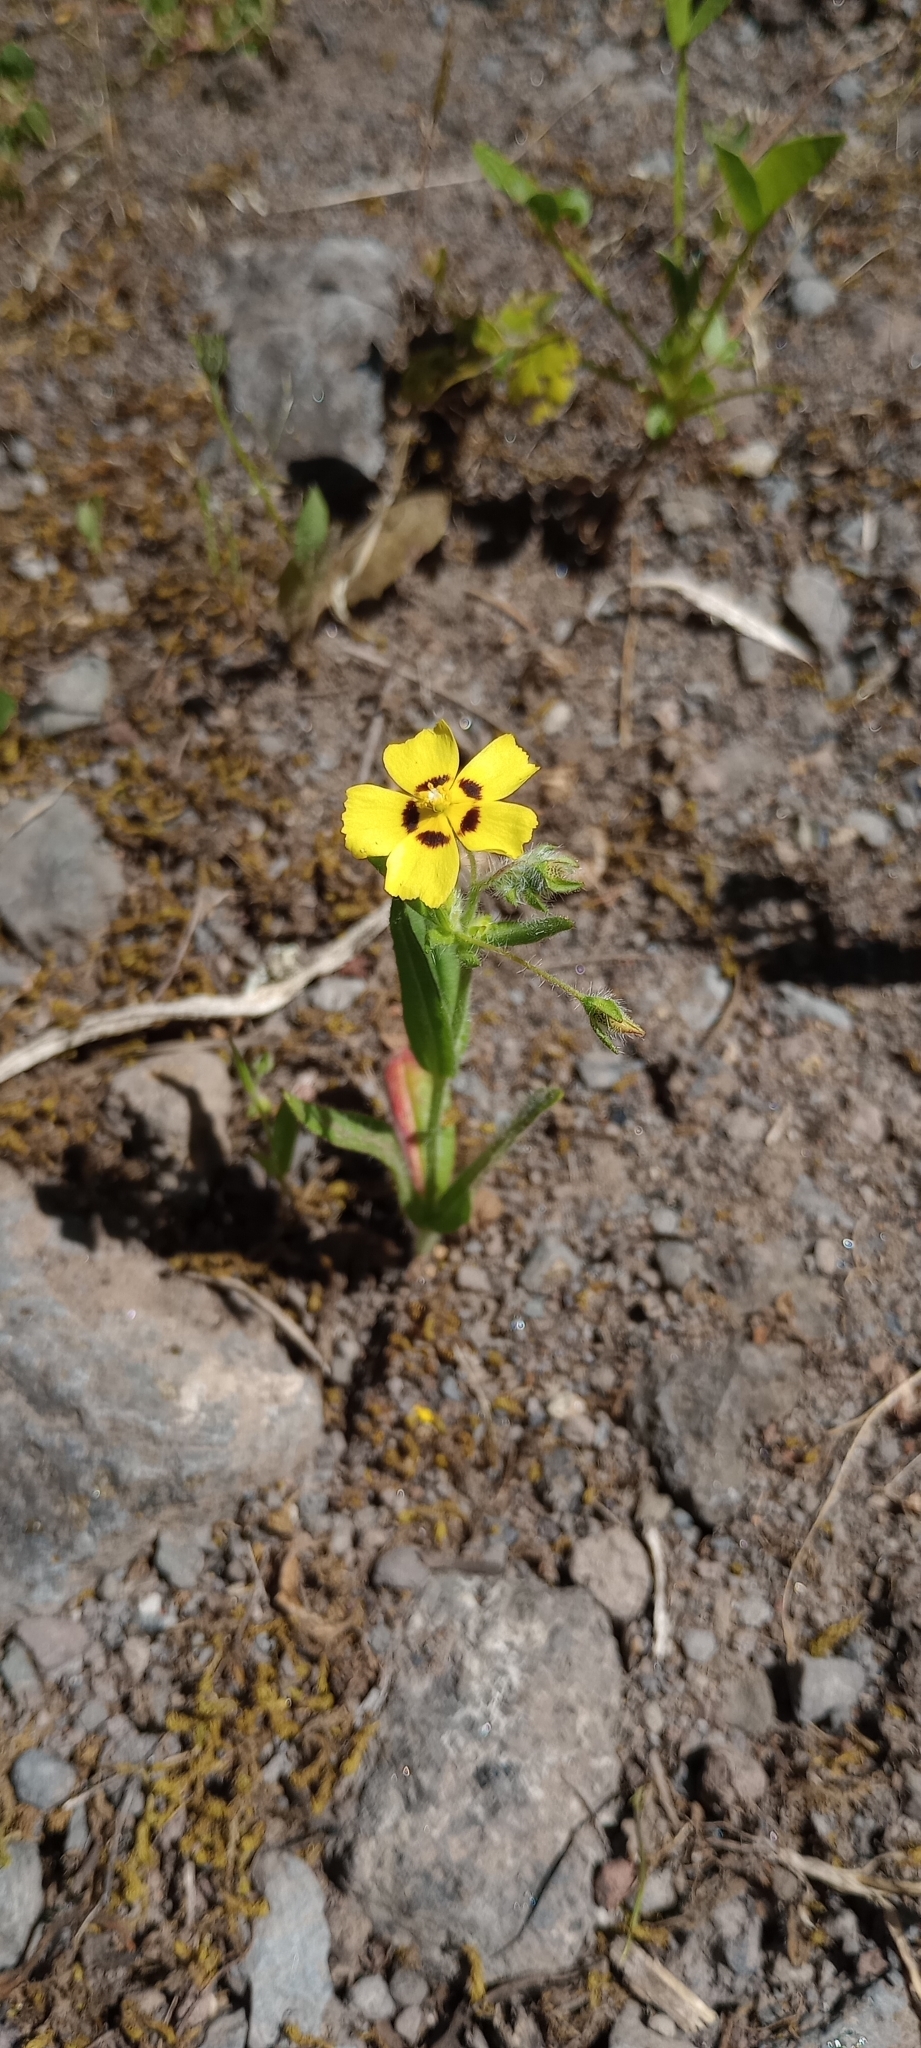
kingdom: Plantae
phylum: Tracheophyta
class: Magnoliopsida
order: Malvales
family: Cistaceae
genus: Tuberaria
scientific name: Tuberaria guttata
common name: Spotted rock-rose
